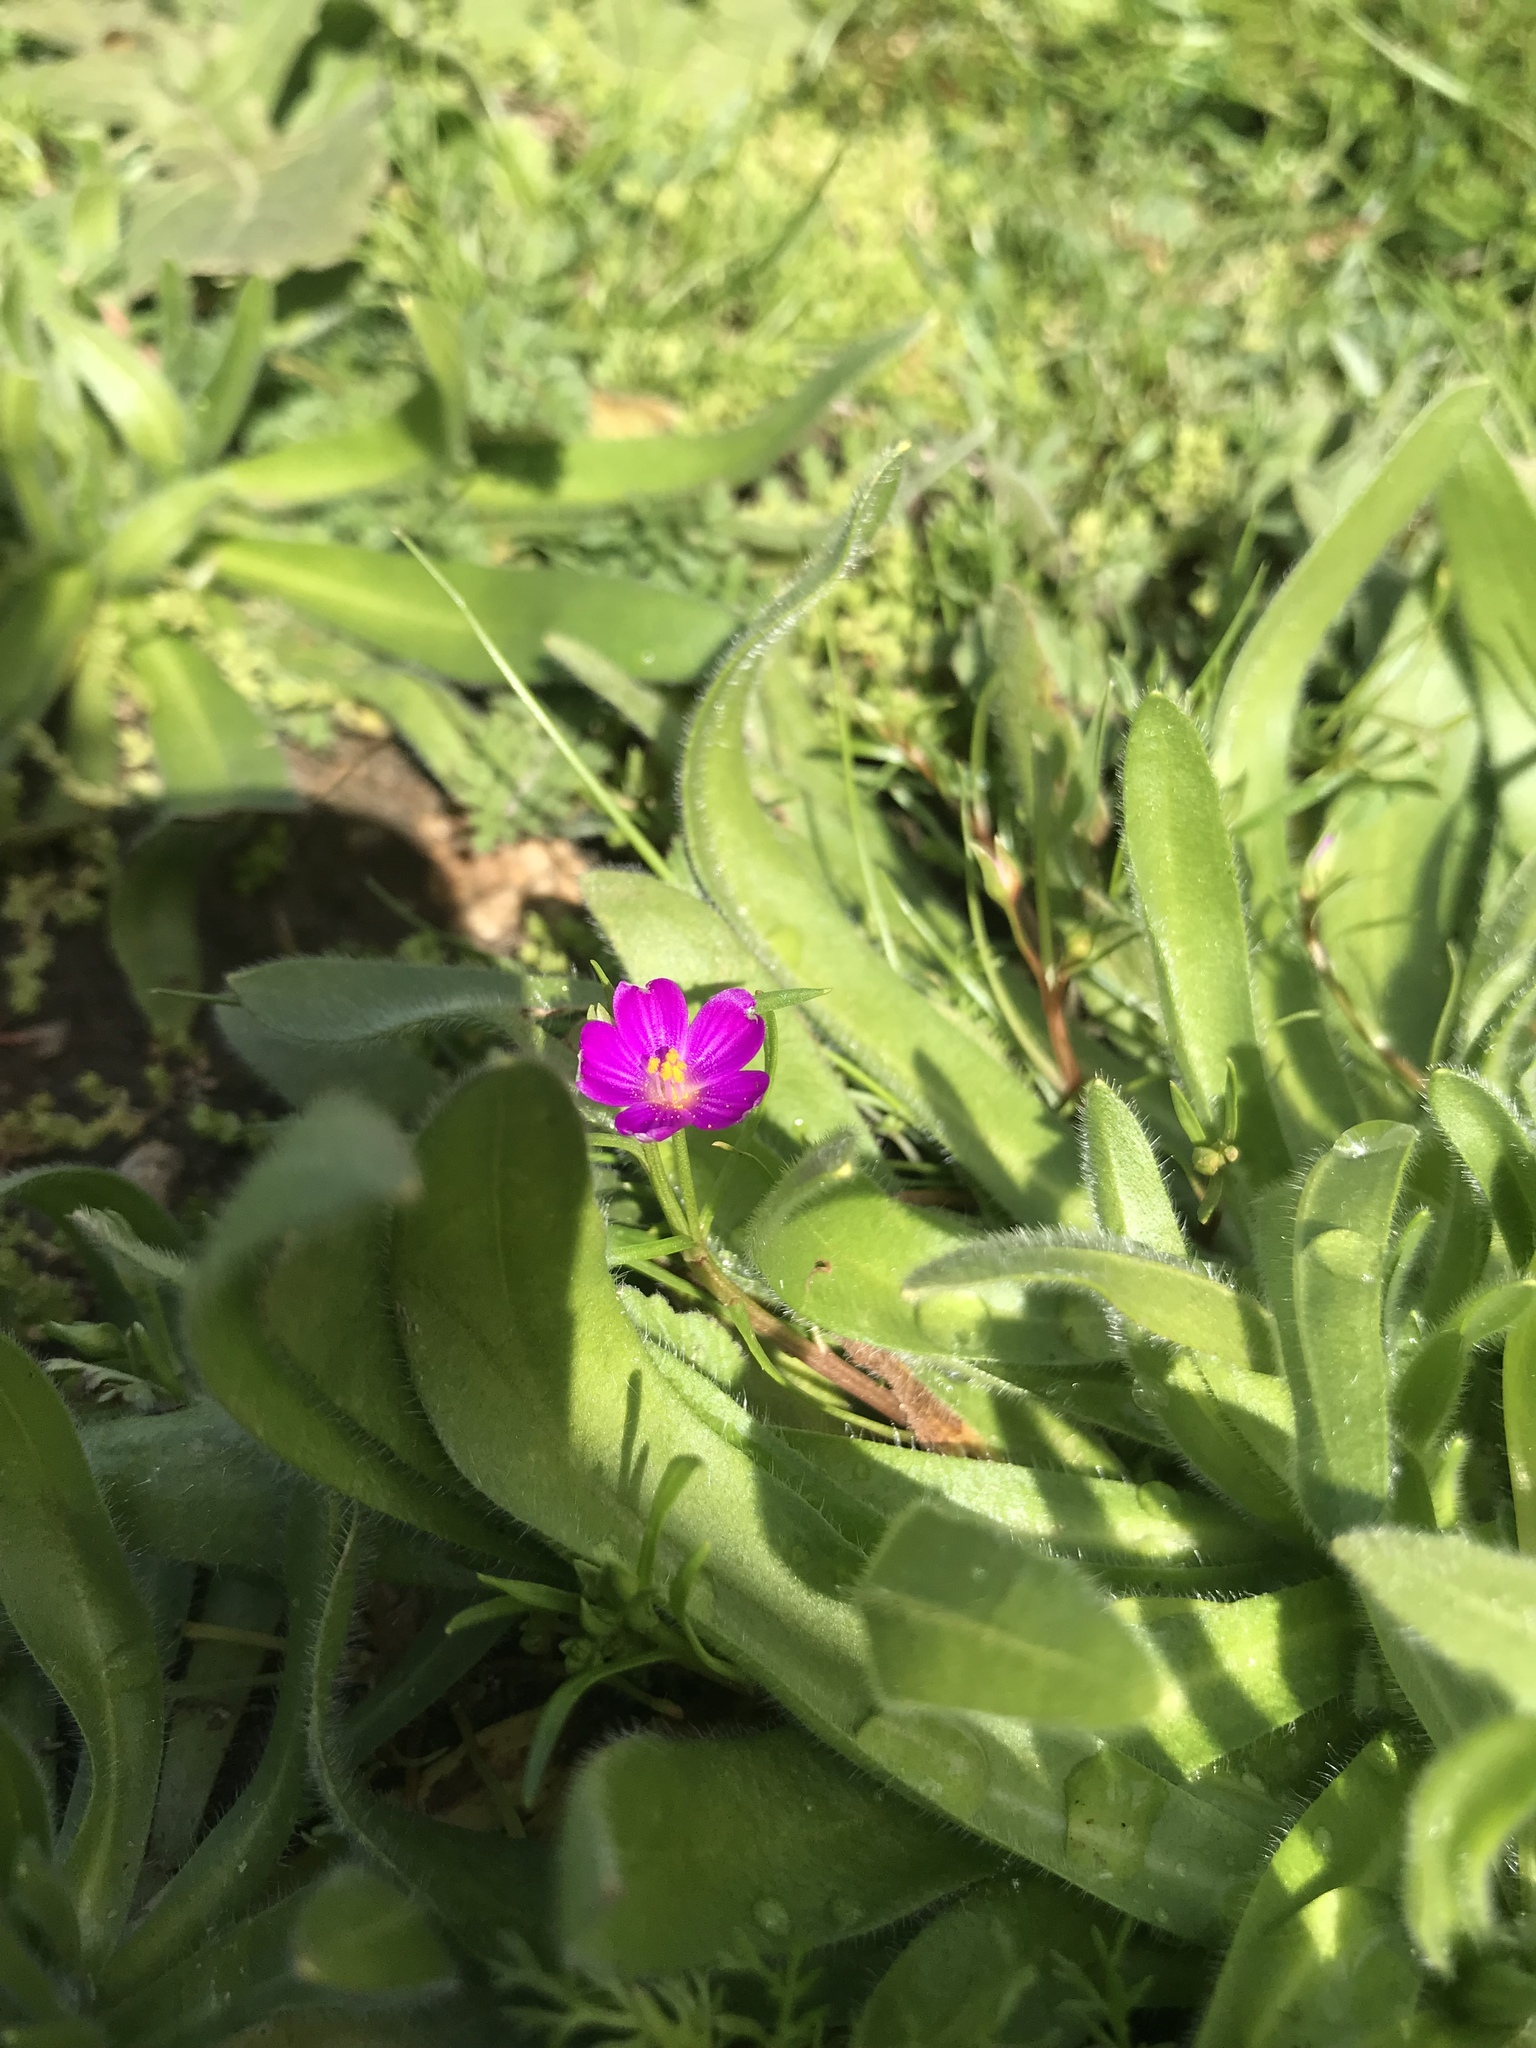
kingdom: Plantae
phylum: Tracheophyta
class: Magnoliopsida
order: Caryophyllales
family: Montiaceae
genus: Calandrinia
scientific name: Calandrinia menziesii
